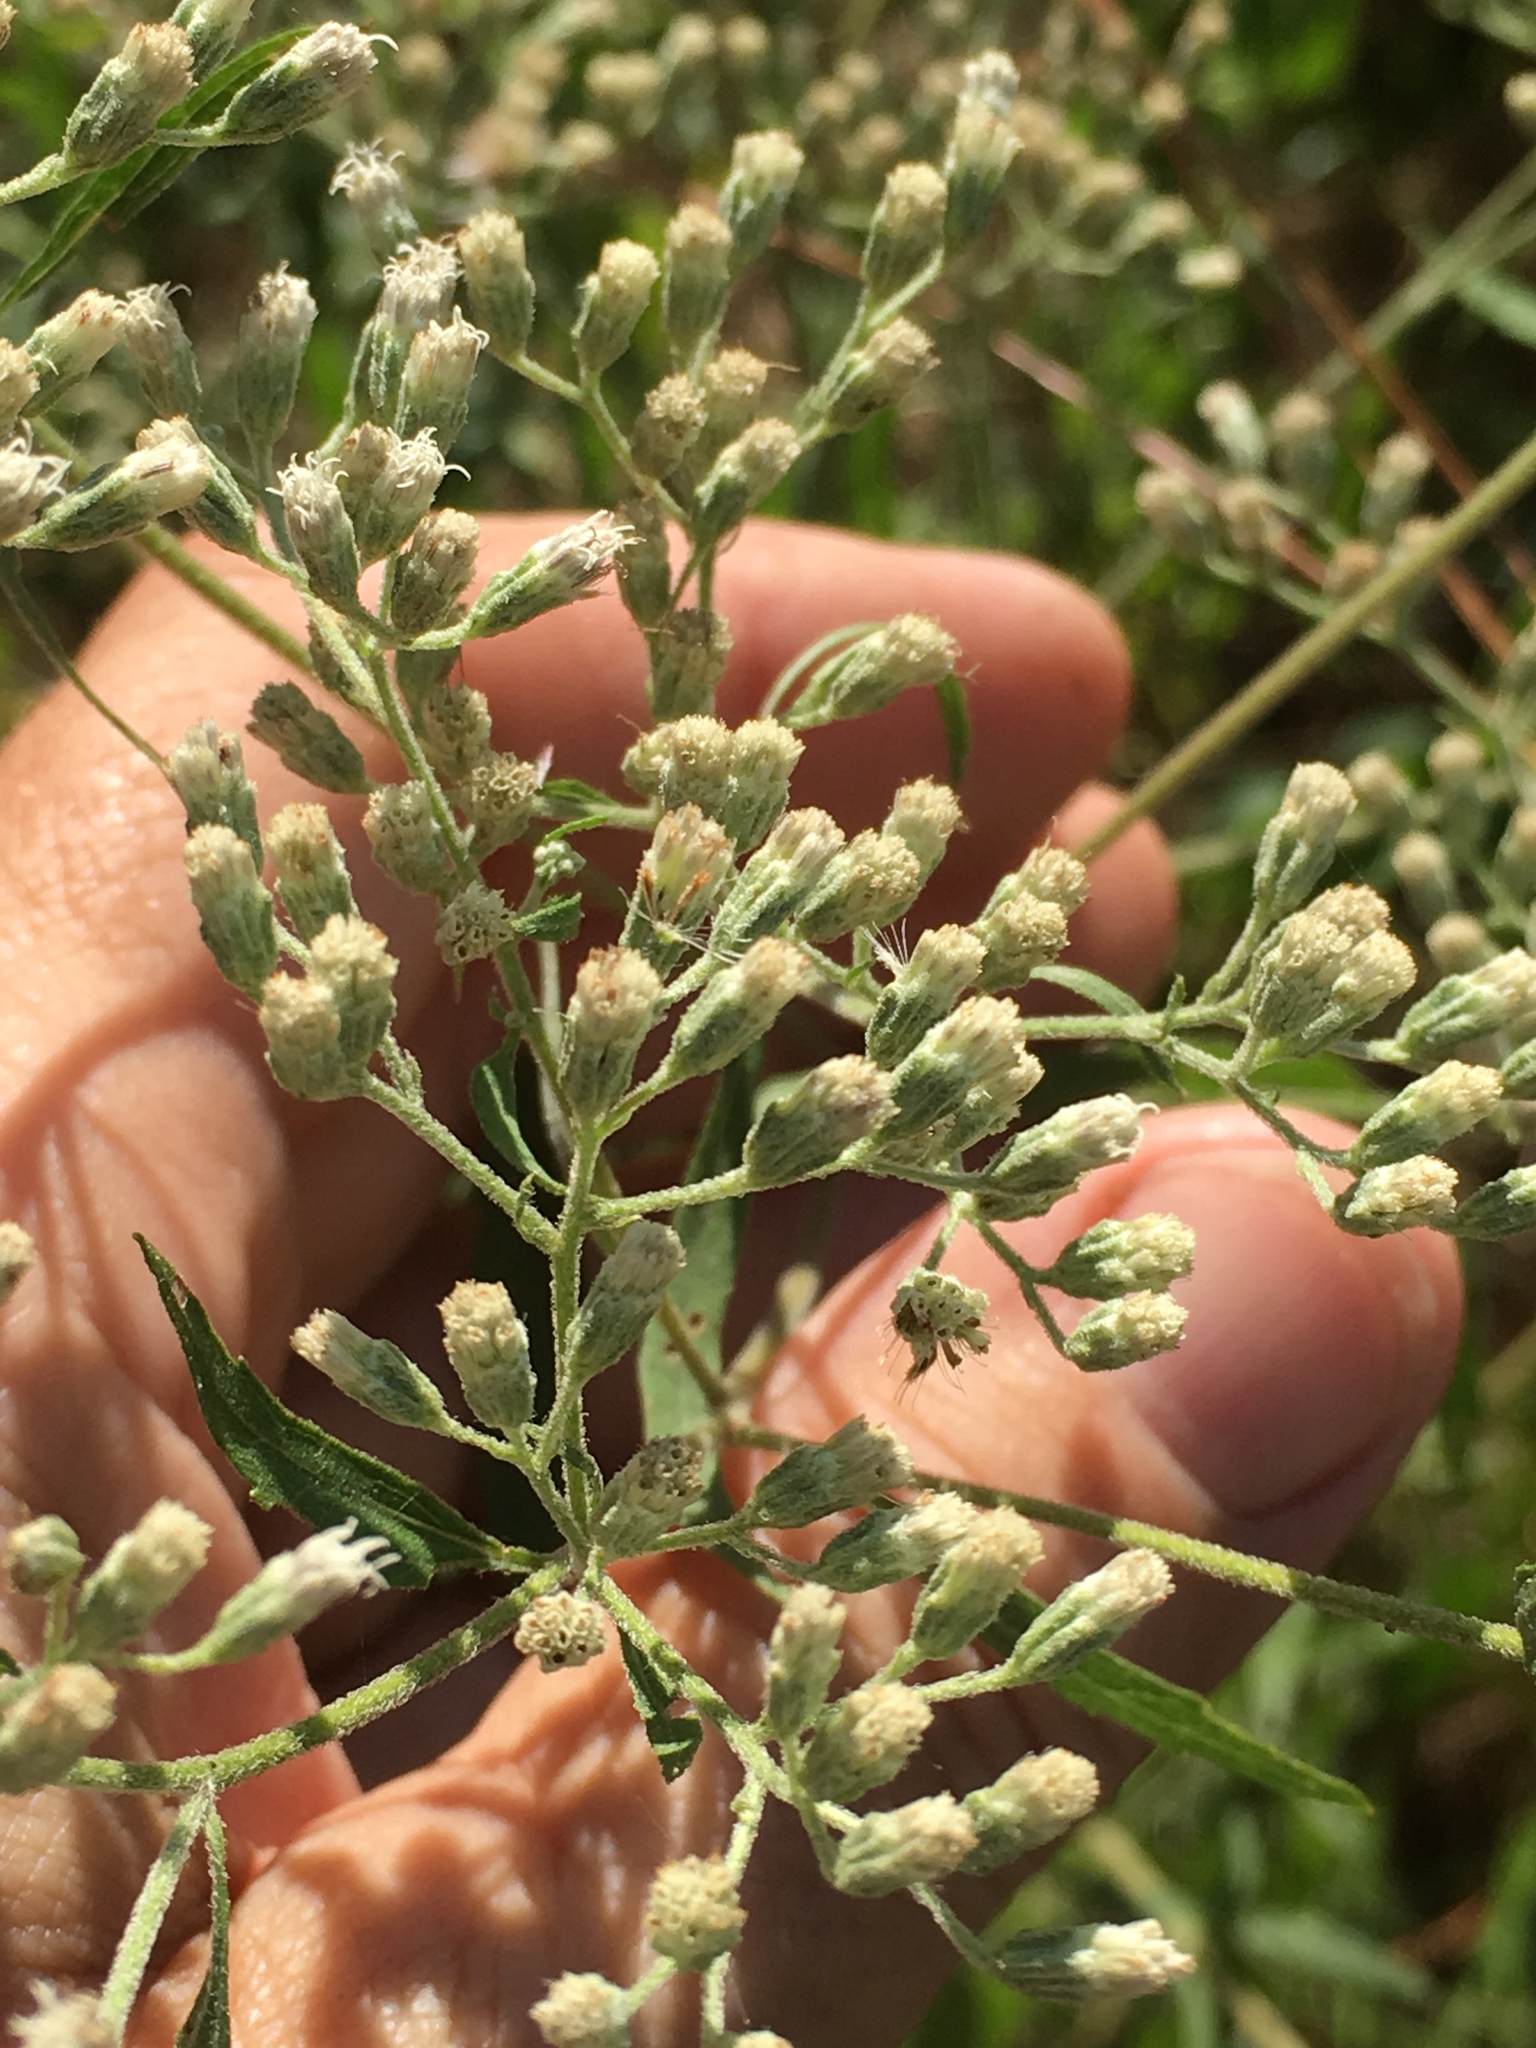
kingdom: Plantae
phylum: Tracheophyta
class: Magnoliopsida
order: Asterales
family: Asteraceae
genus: Eupatorium
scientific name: Eupatorium serotinum
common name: Late boneset
